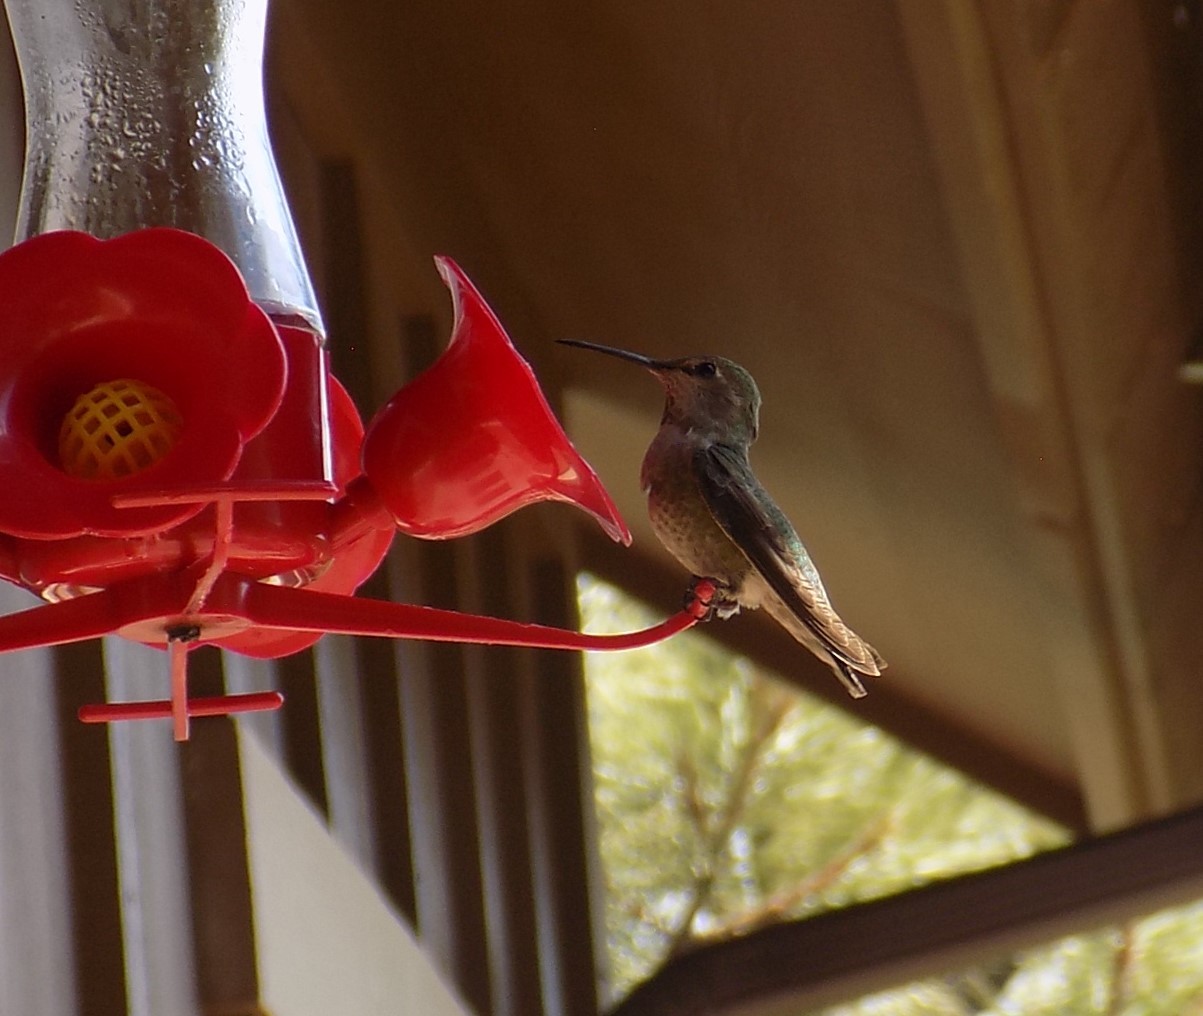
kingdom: Animalia
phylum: Chordata
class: Aves
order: Apodiformes
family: Trochilidae
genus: Calypte
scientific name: Calypte anna
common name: Anna's hummingbird
